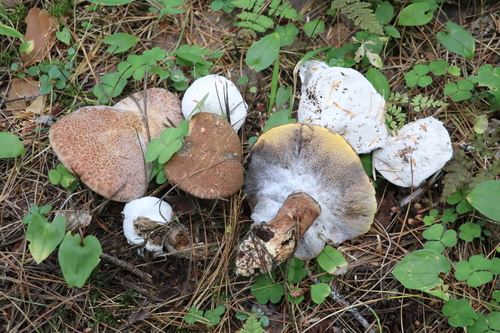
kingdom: Fungi
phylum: Basidiomycota
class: Agaricomycetes
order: Boletales
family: Suillaceae
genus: Suillus
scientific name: Suillus spraguei
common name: Painted suillus
